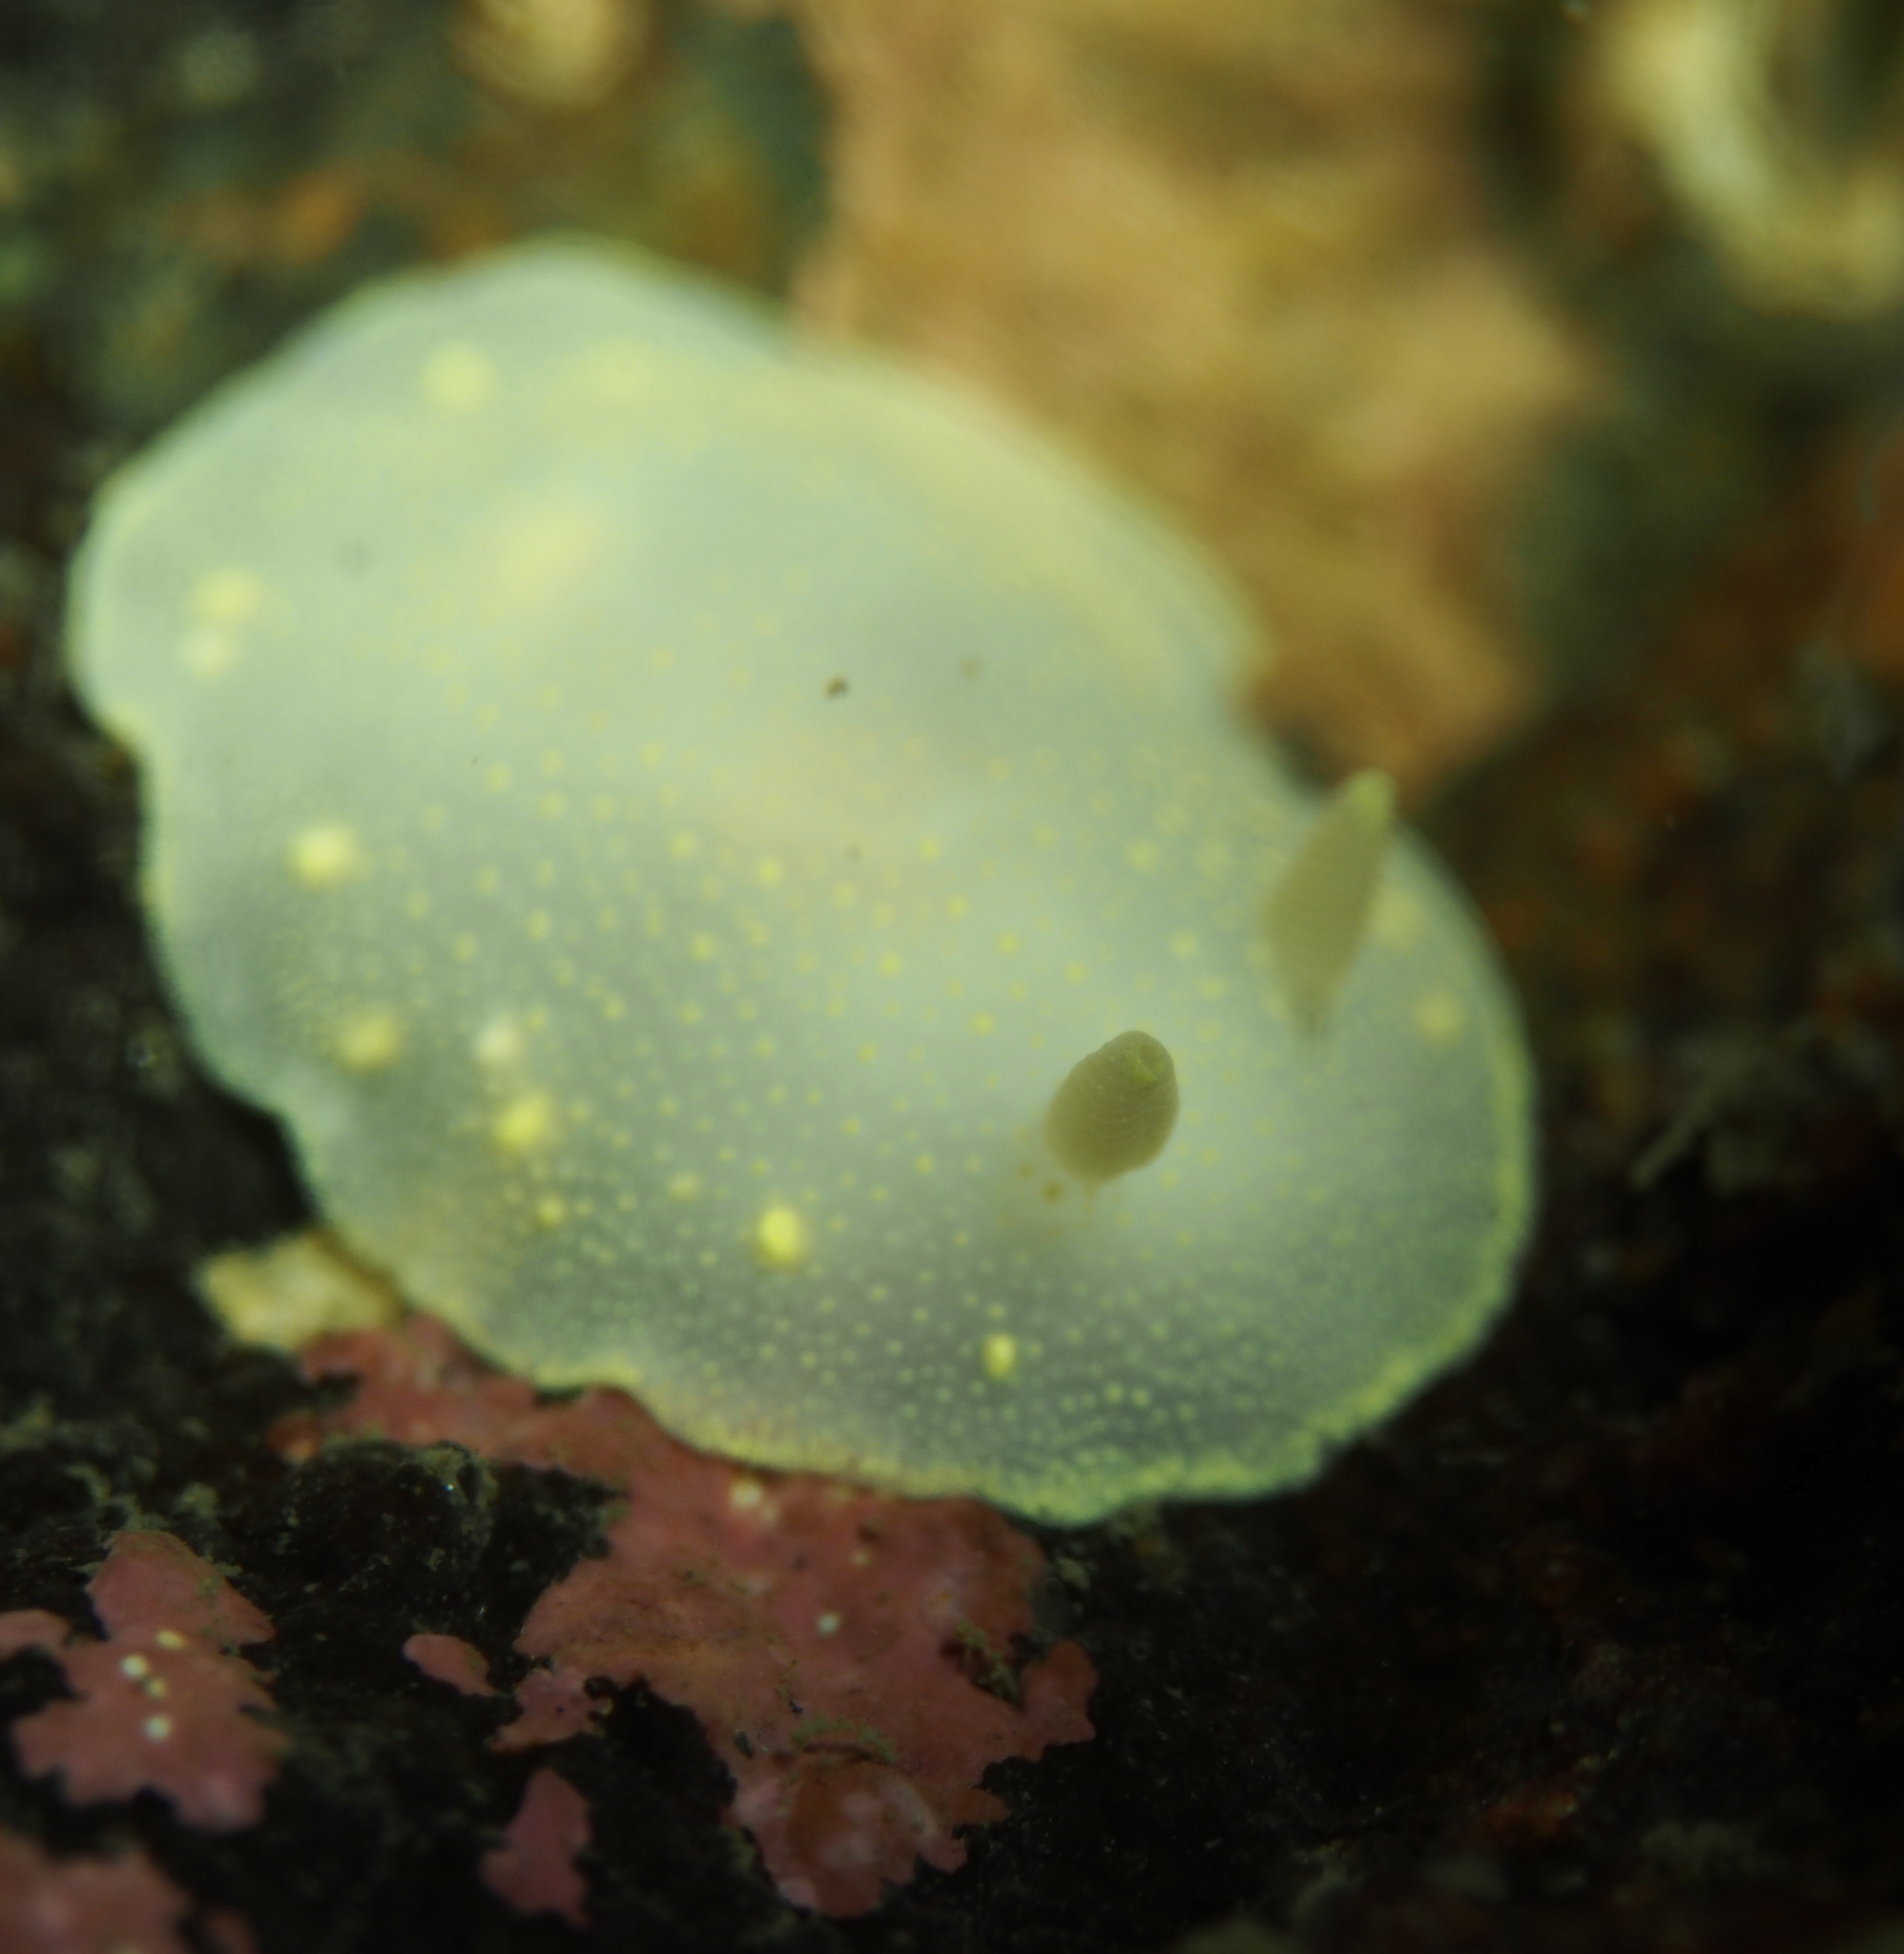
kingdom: Animalia
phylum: Mollusca
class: Gastropoda
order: Nudibranchia
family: Cadlinidae
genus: Cadlina
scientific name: Cadlina laevis
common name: White atlantic cadlina
